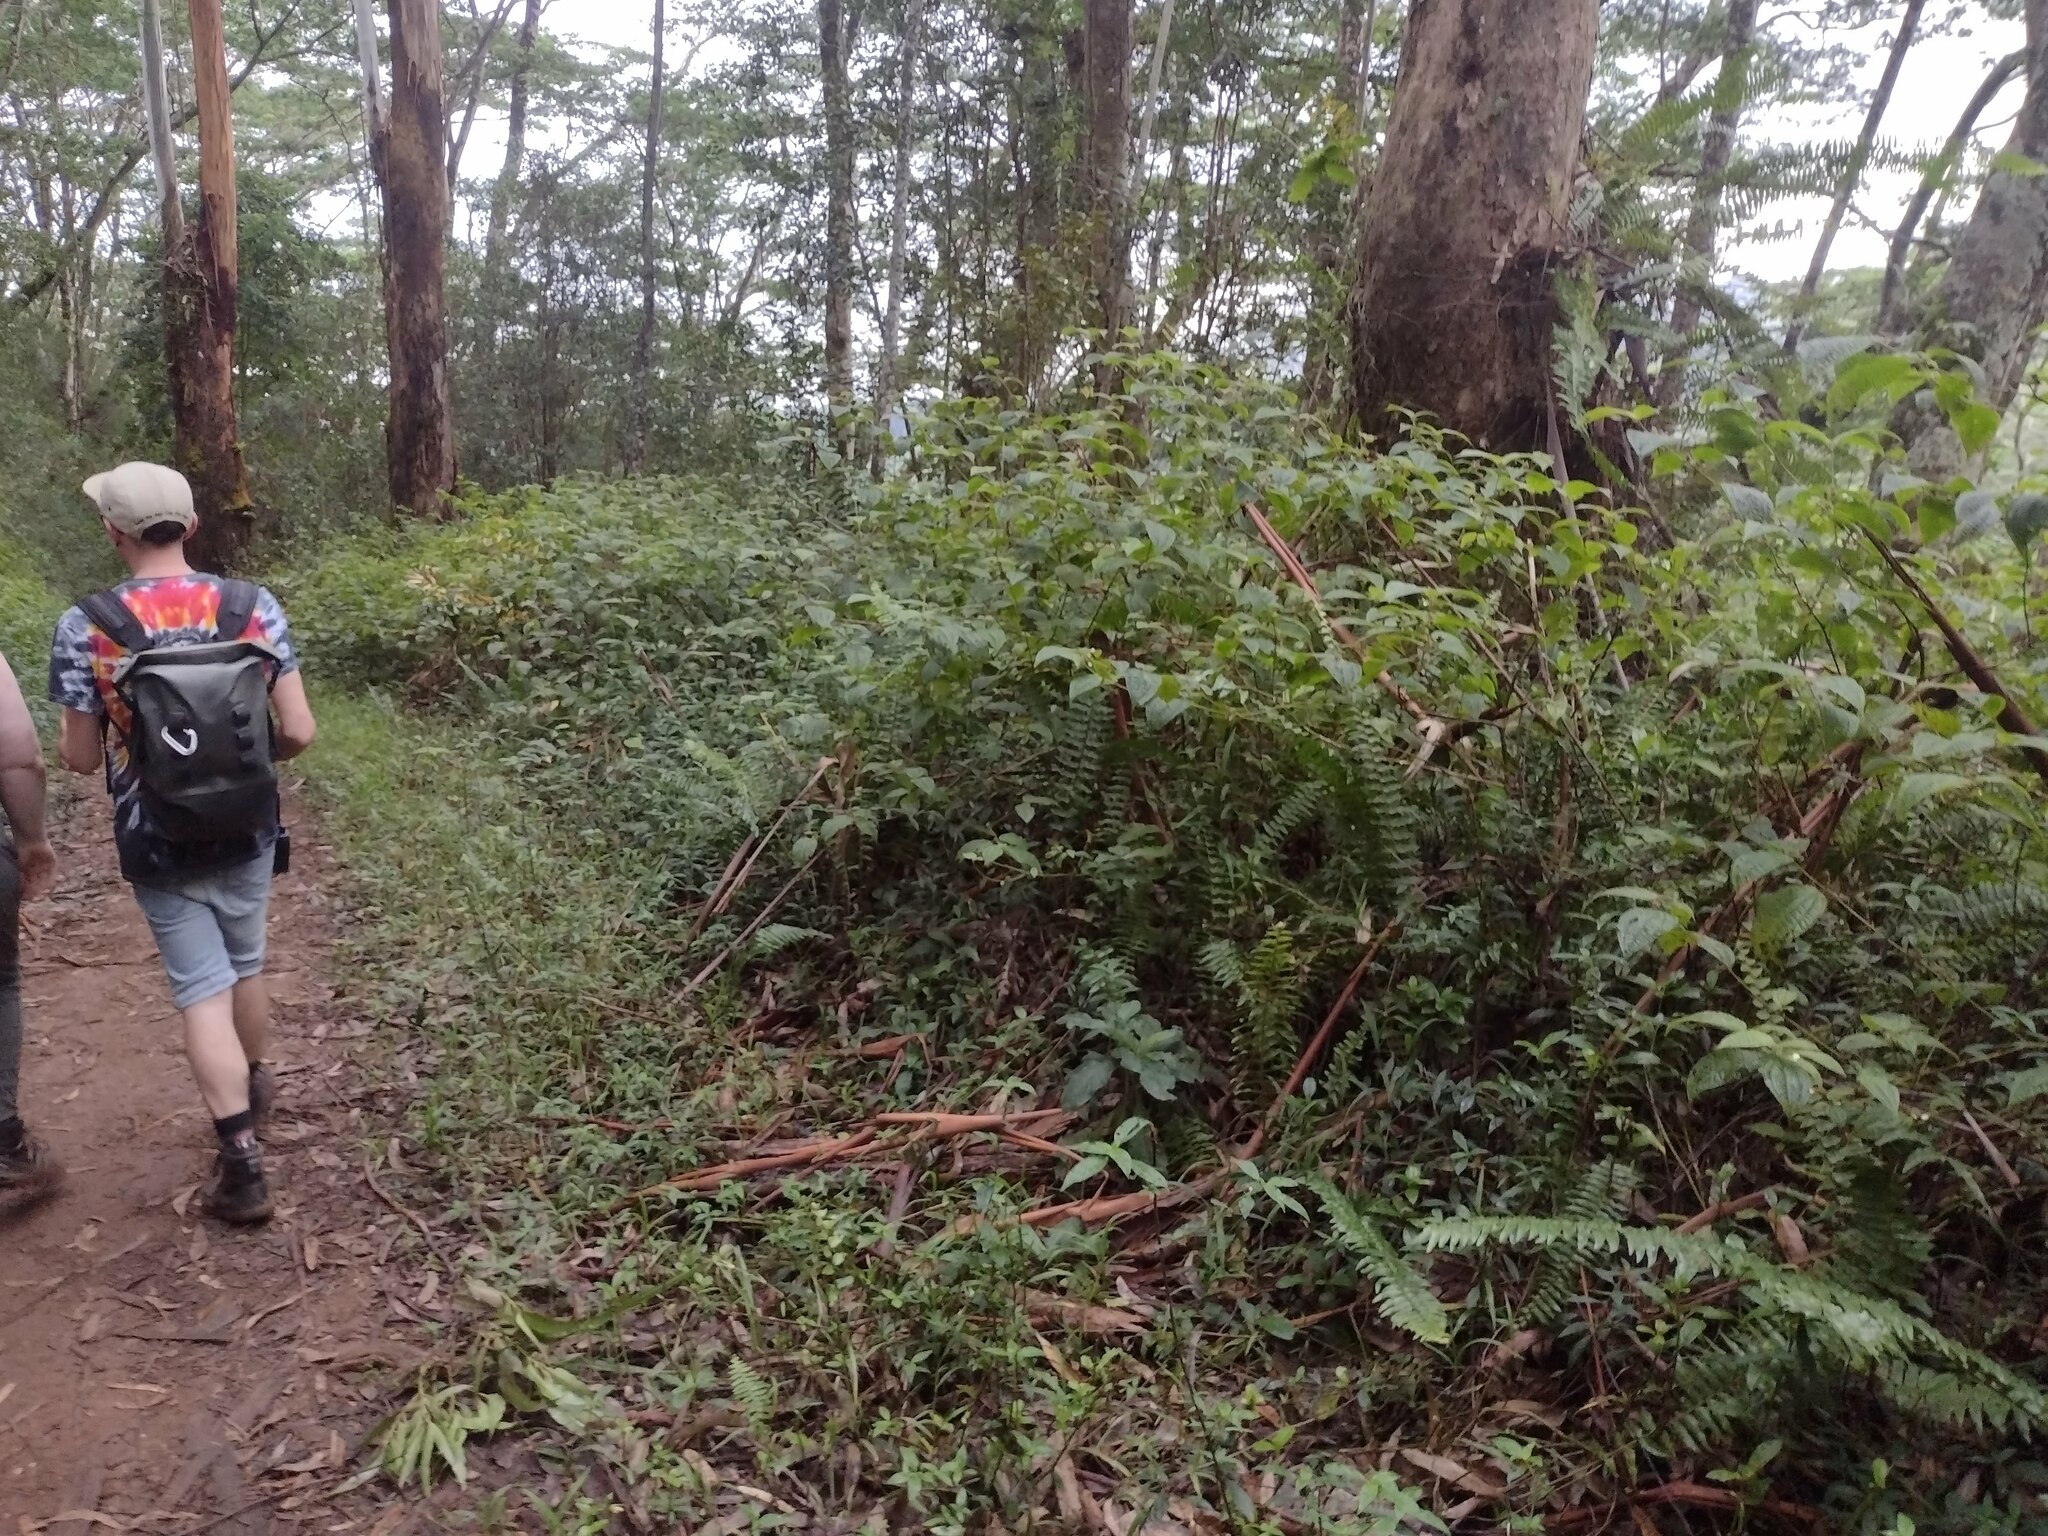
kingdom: Plantae
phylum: Tracheophyta
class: Magnoliopsida
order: Myrtales
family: Melastomataceae
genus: Miconia
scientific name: Miconia crenata
